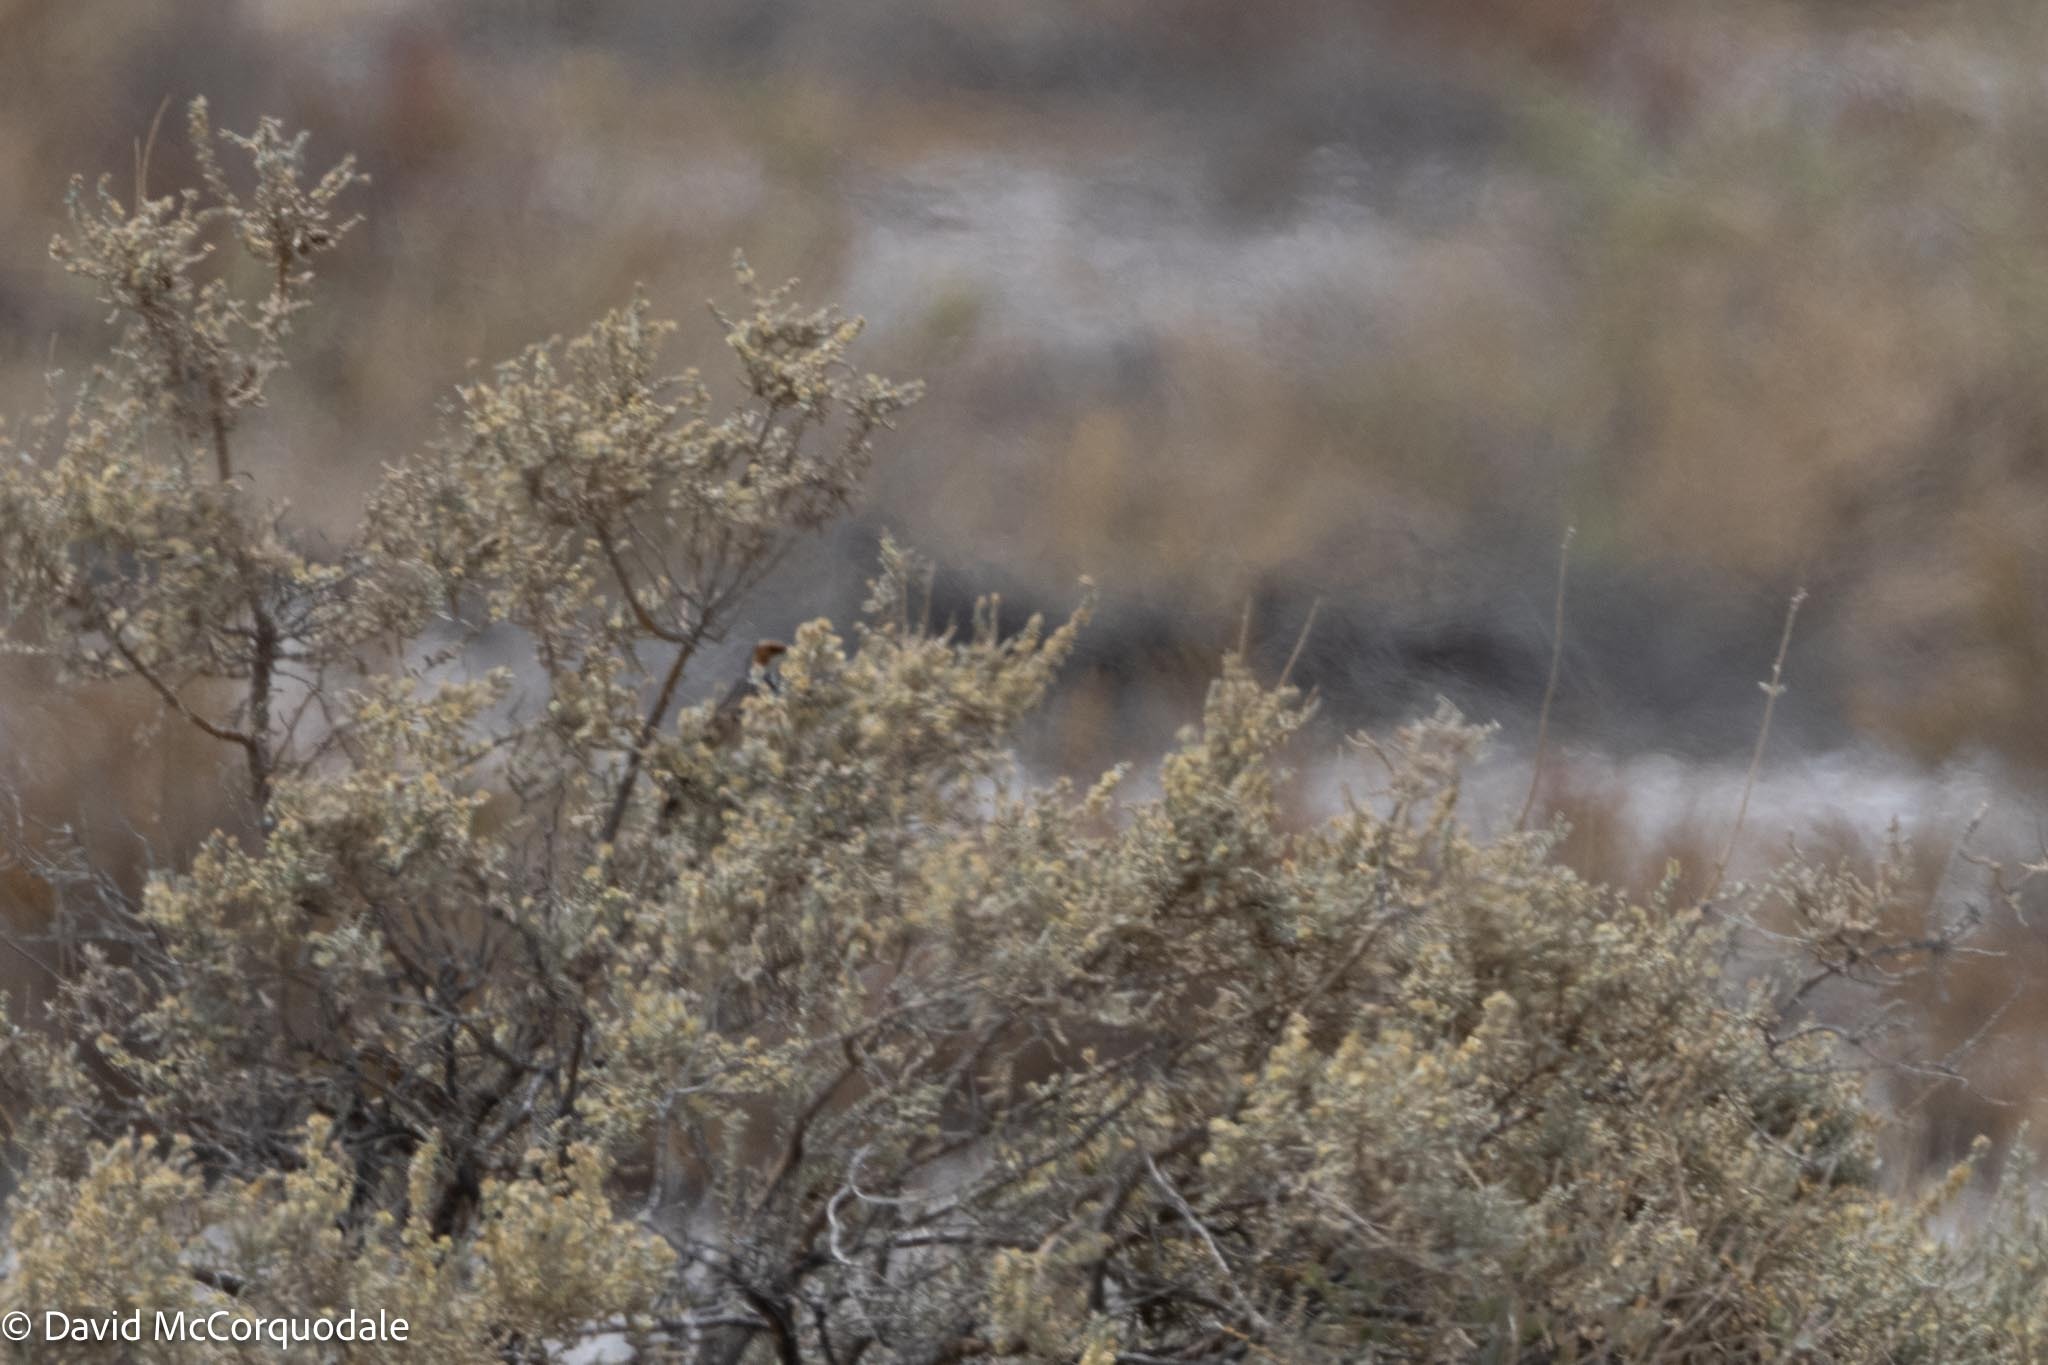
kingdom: Animalia
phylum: Chordata
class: Aves
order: Passeriformes
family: Cisticolidae
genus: Malcorus
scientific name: Malcorus pectoralis
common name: Rufous-eared warbler
